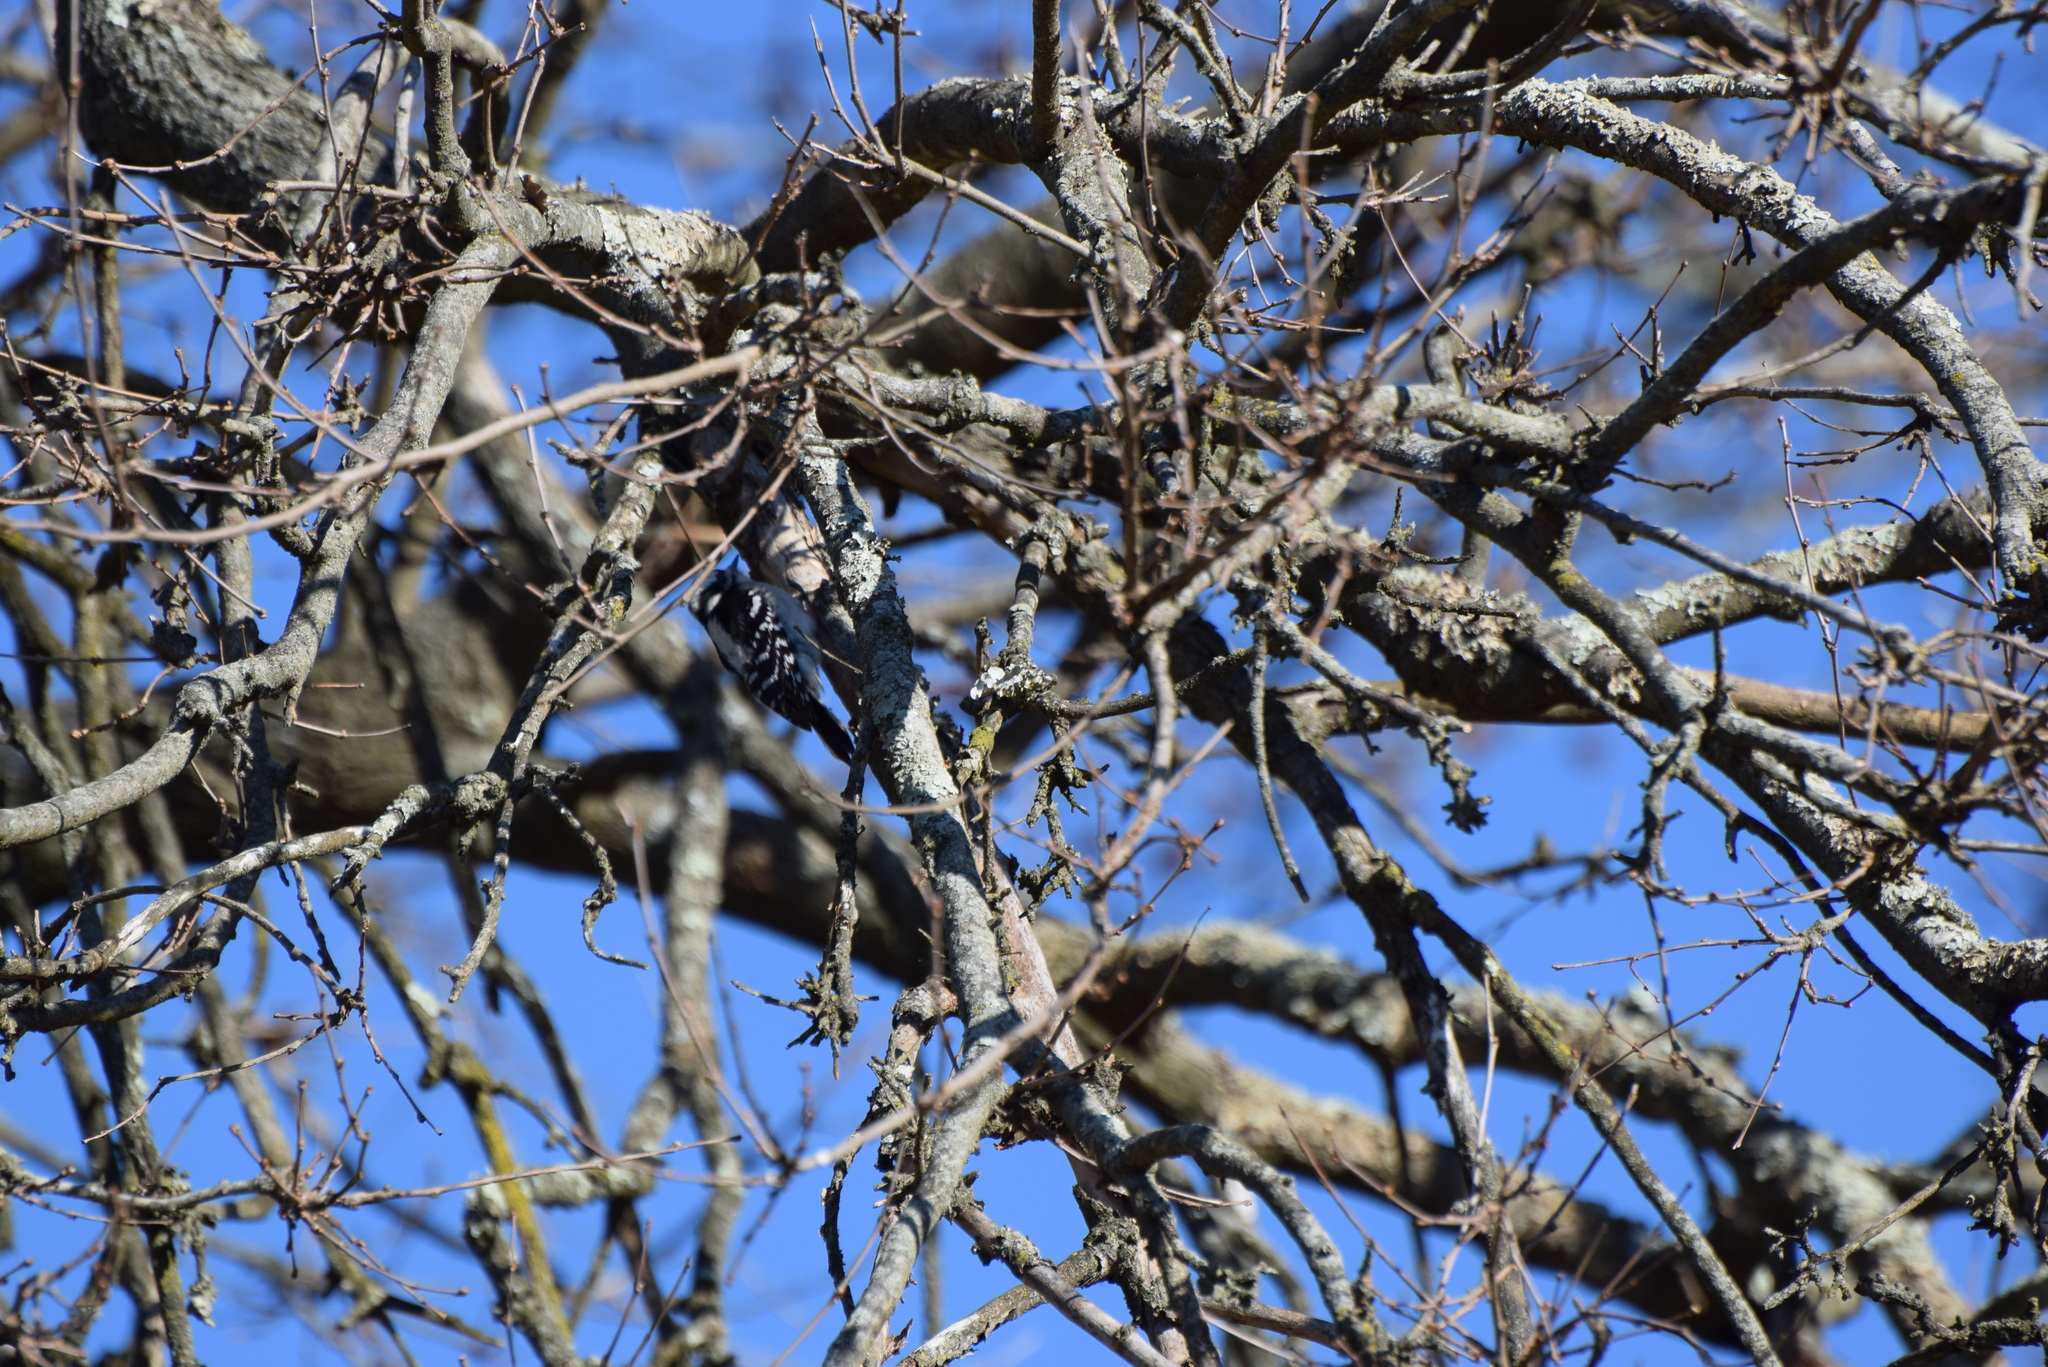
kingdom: Animalia
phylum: Chordata
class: Aves
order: Piciformes
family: Picidae
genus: Dryobates
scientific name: Dryobates pubescens
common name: Downy woodpecker
